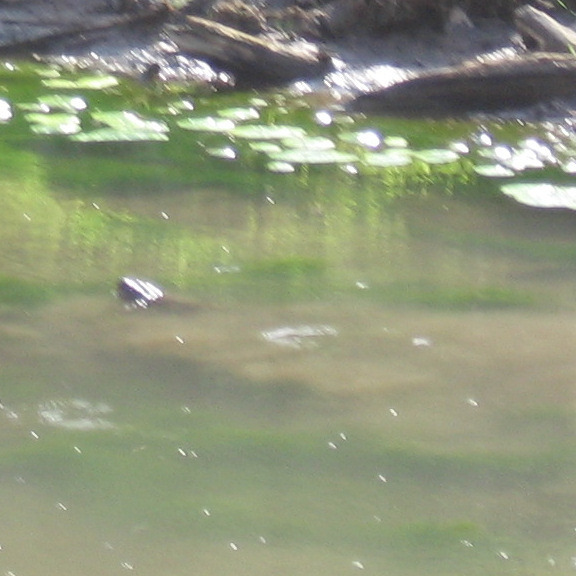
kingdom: Animalia
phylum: Chordata
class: Testudines
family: Chelydridae
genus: Chelydra
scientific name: Chelydra serpentina
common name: Common snapping turtle
